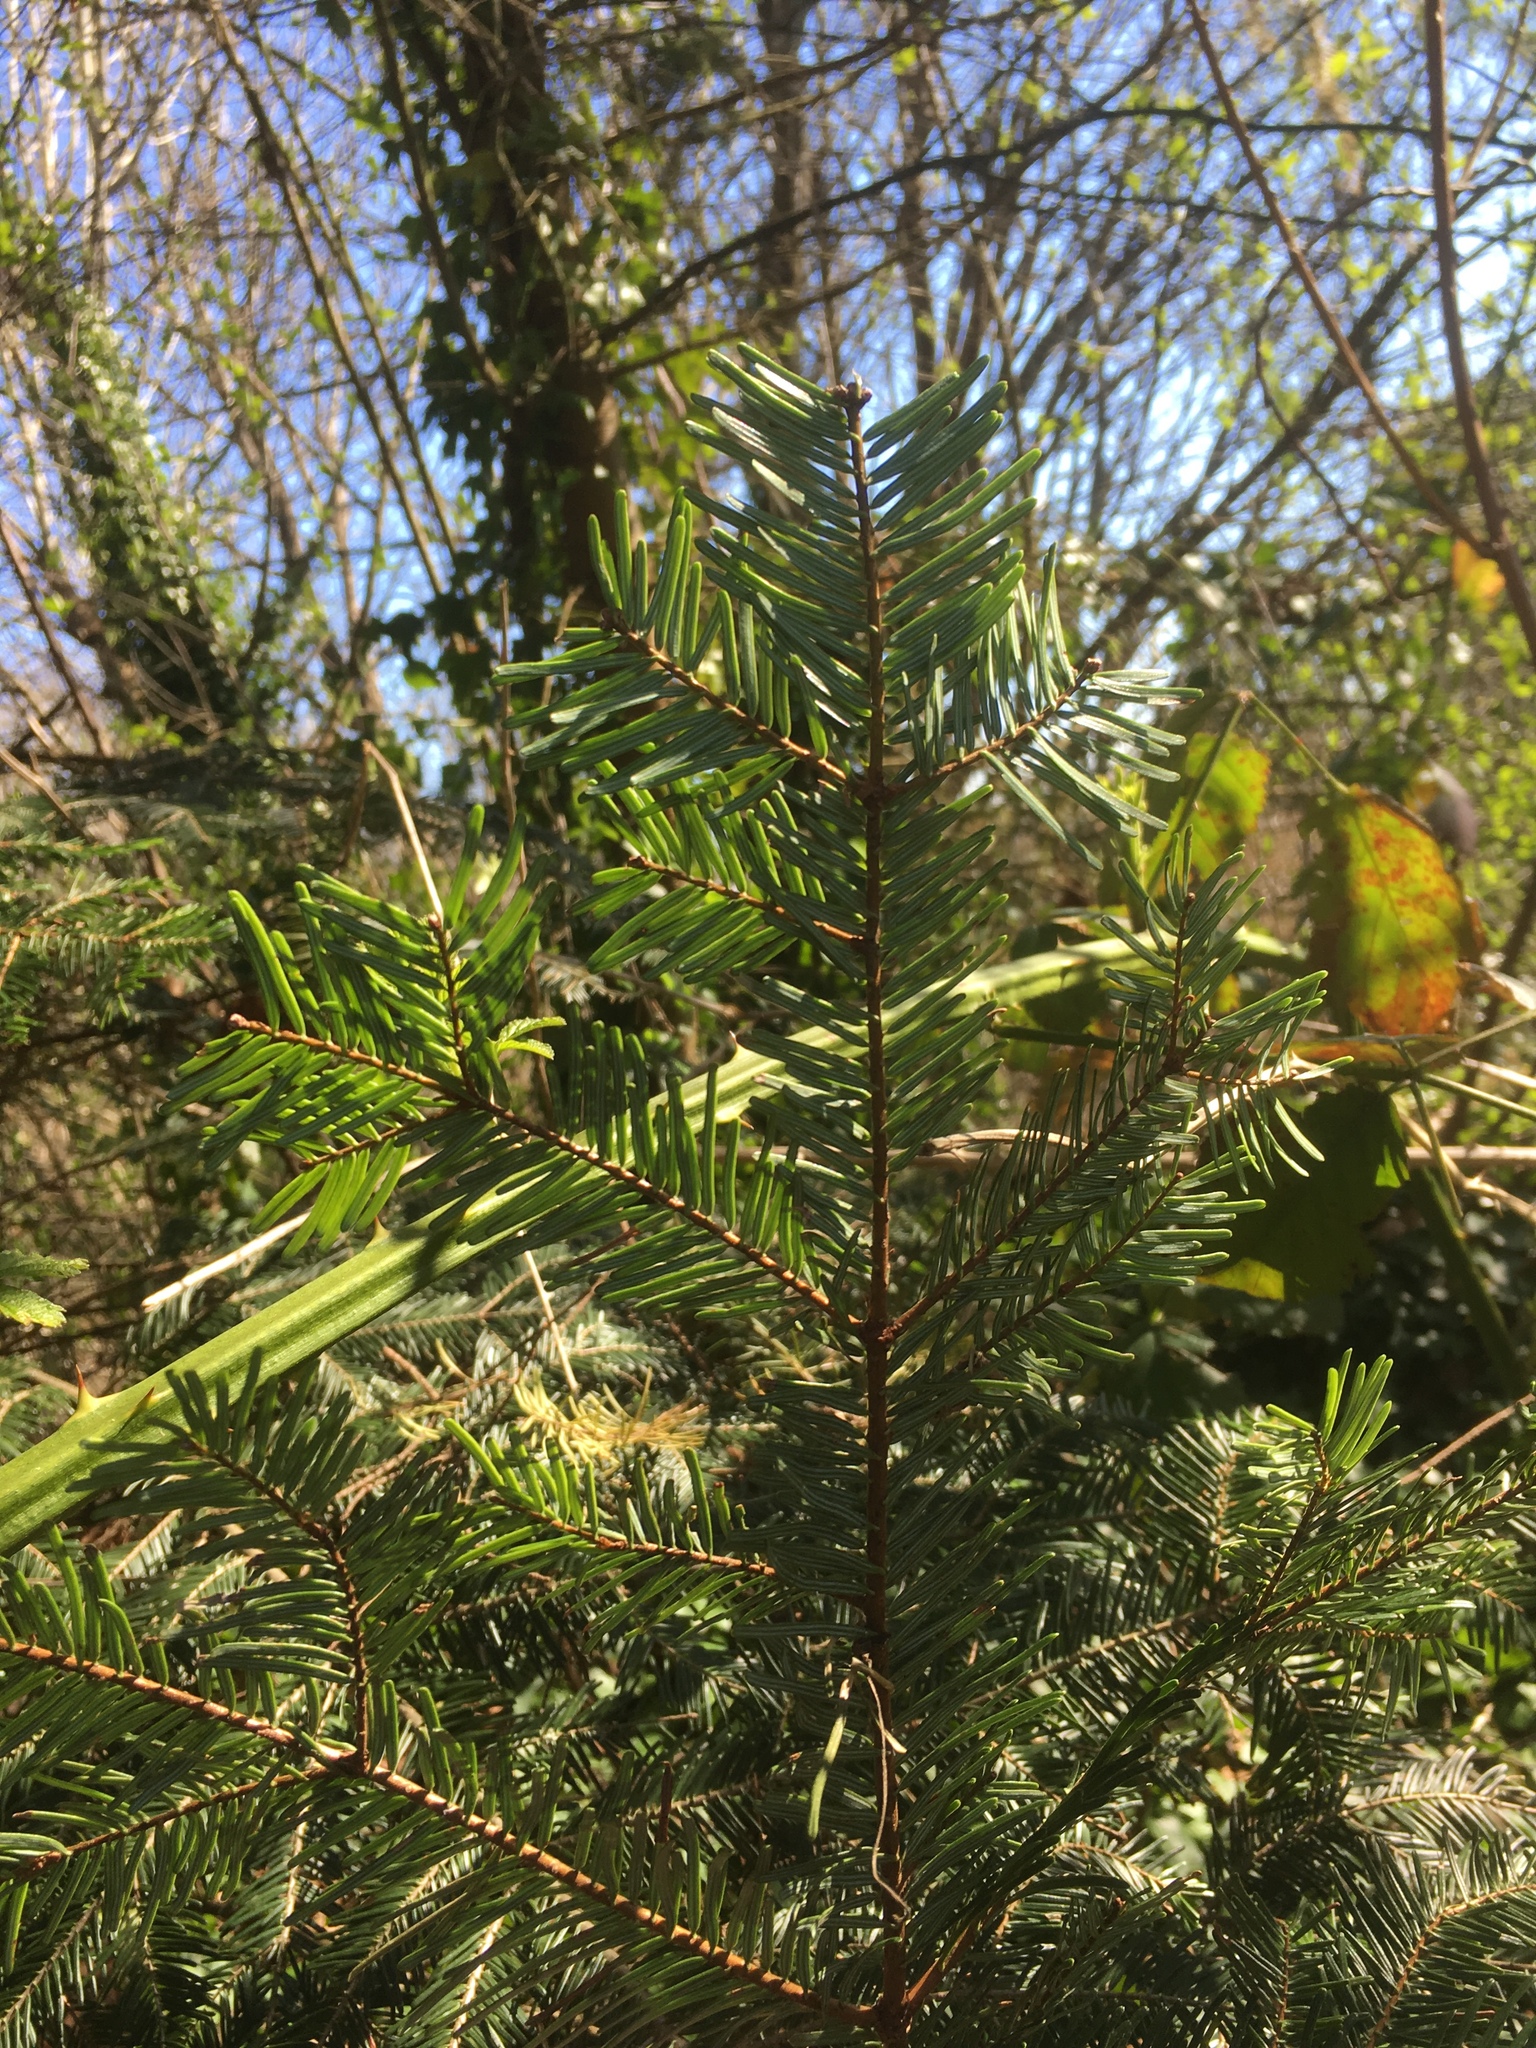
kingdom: Plantae
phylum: Tracheophyta
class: Pinopsida
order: Pinales
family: Pinaceae
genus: Abies
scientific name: Abies grandis
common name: Giant fir
